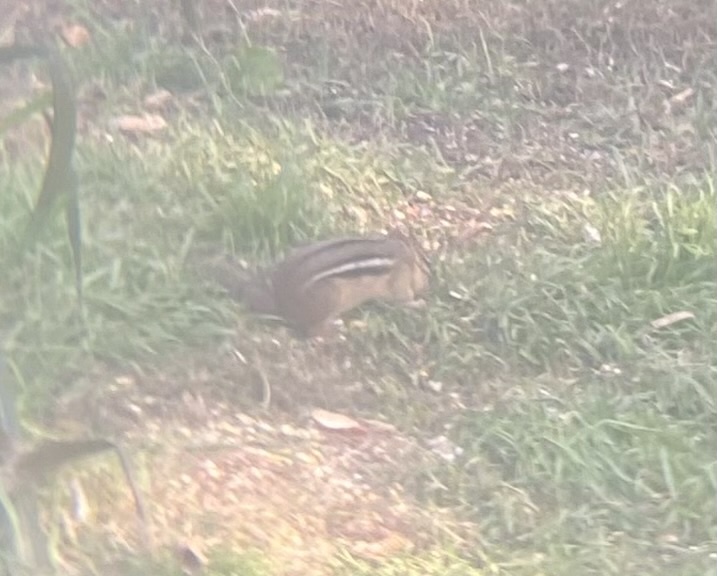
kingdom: Animalia
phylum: Chordata
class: Mammalia
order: Rodentia
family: Sciuridae
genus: Tamias
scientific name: Tamias striatus
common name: Eastern chipmunk
